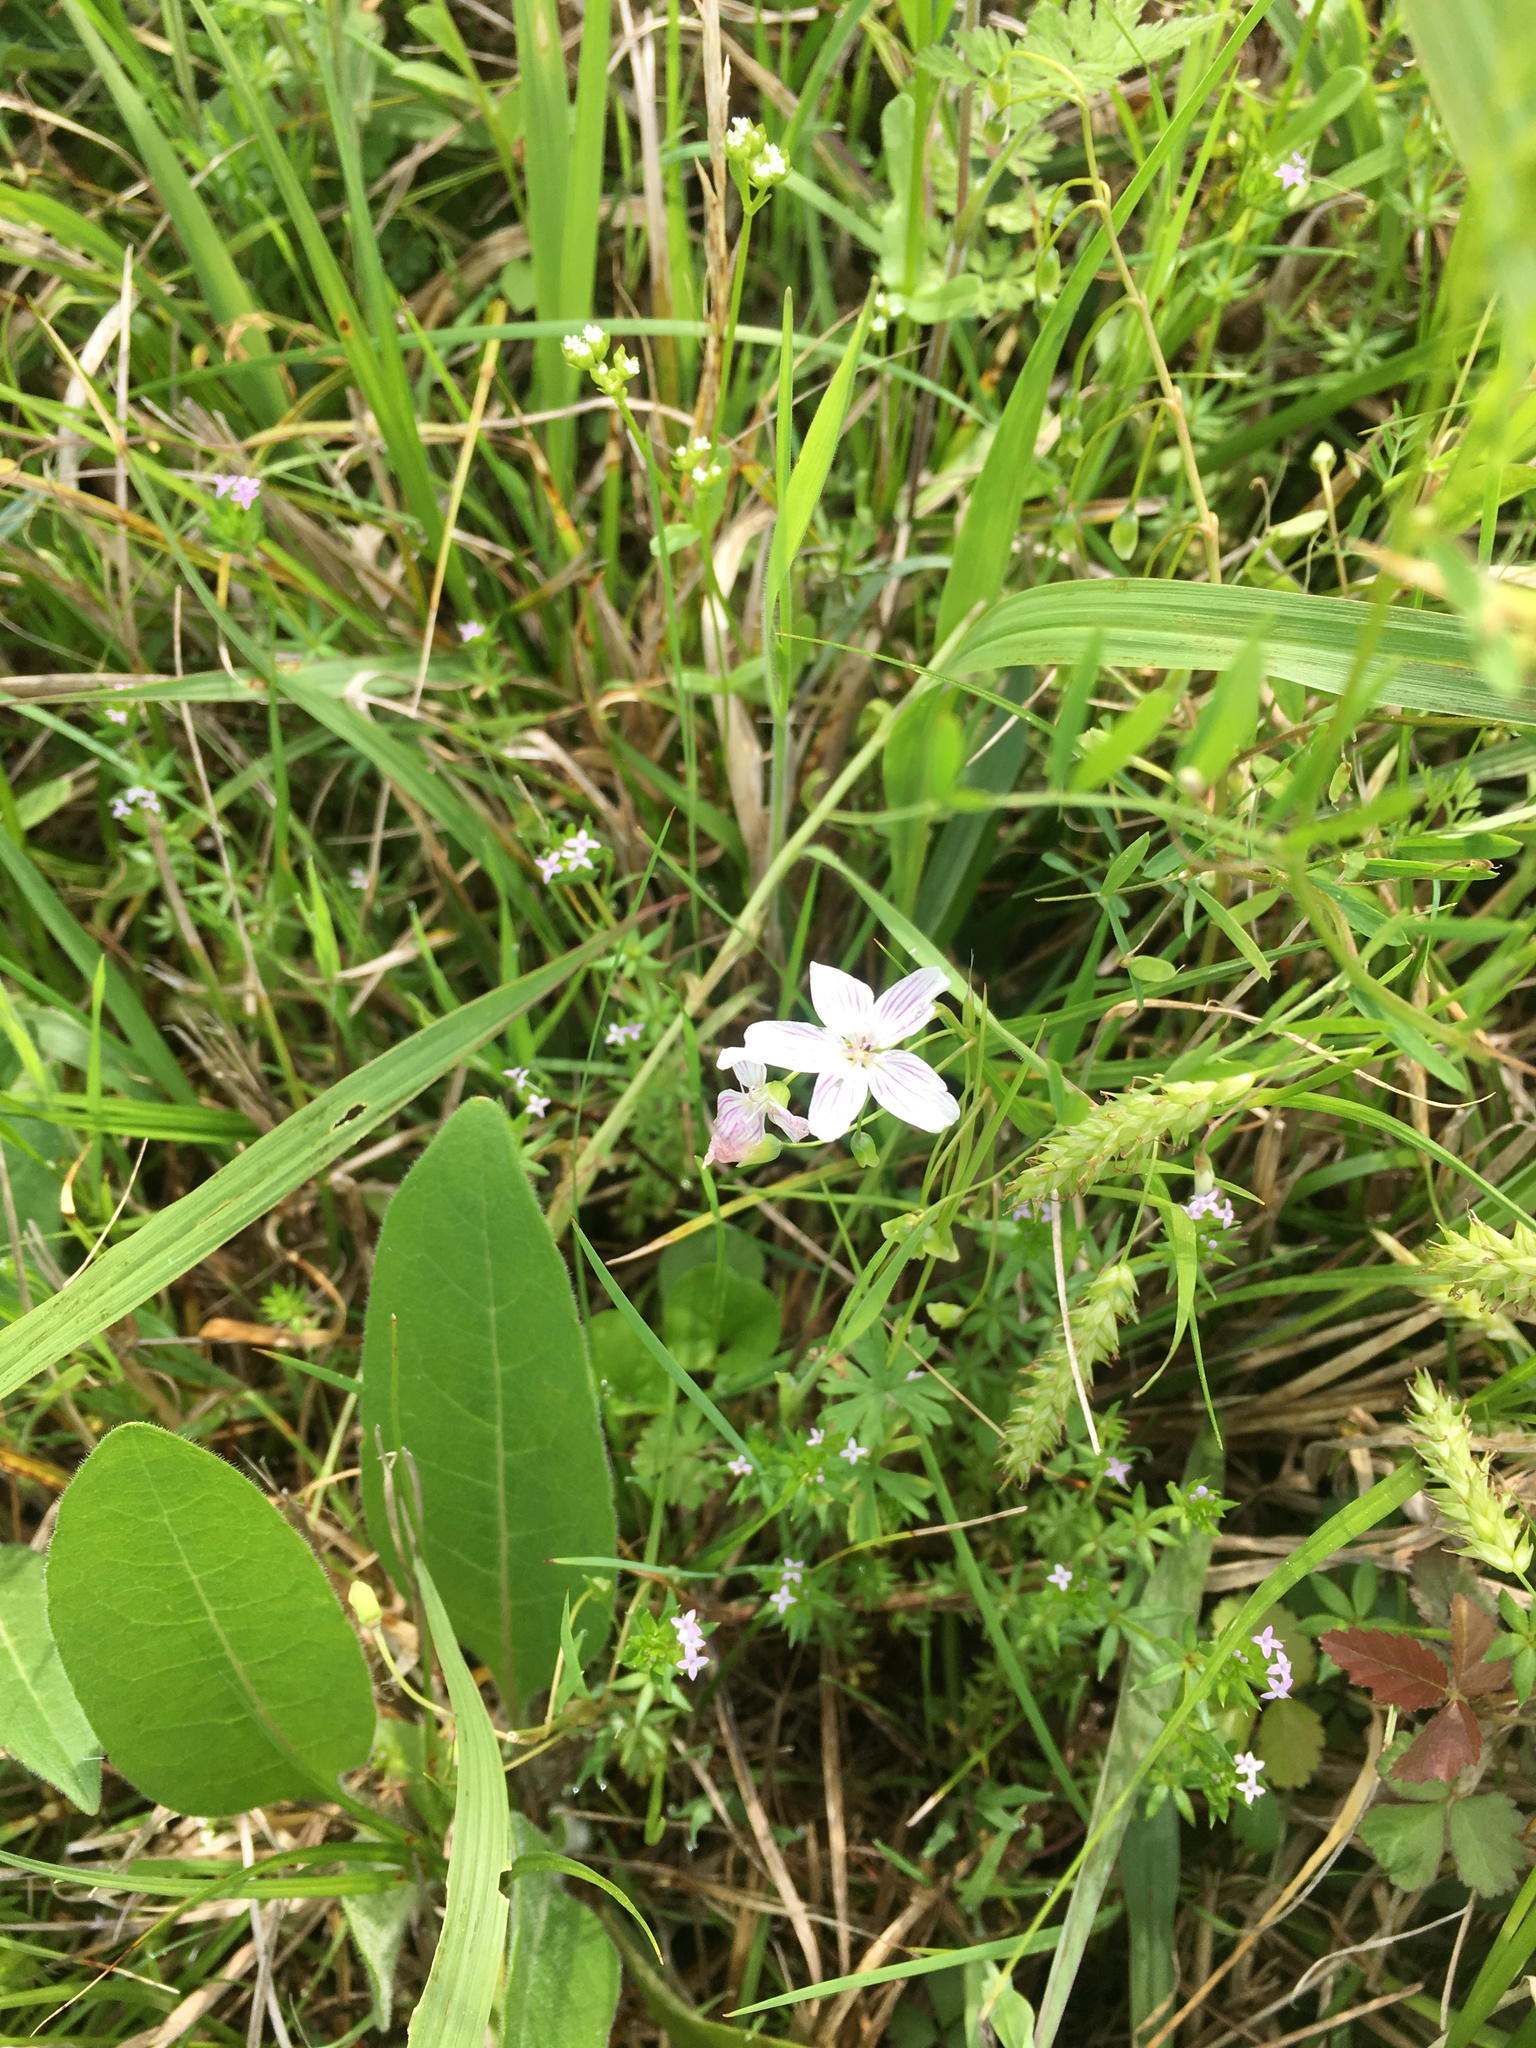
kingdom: Plantae
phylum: Tracheophyta
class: Magnoliopsida
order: Caryophyllales
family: Montiaceae
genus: Claytonia
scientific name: Claytonia virginica
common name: Virginia springbeauty
